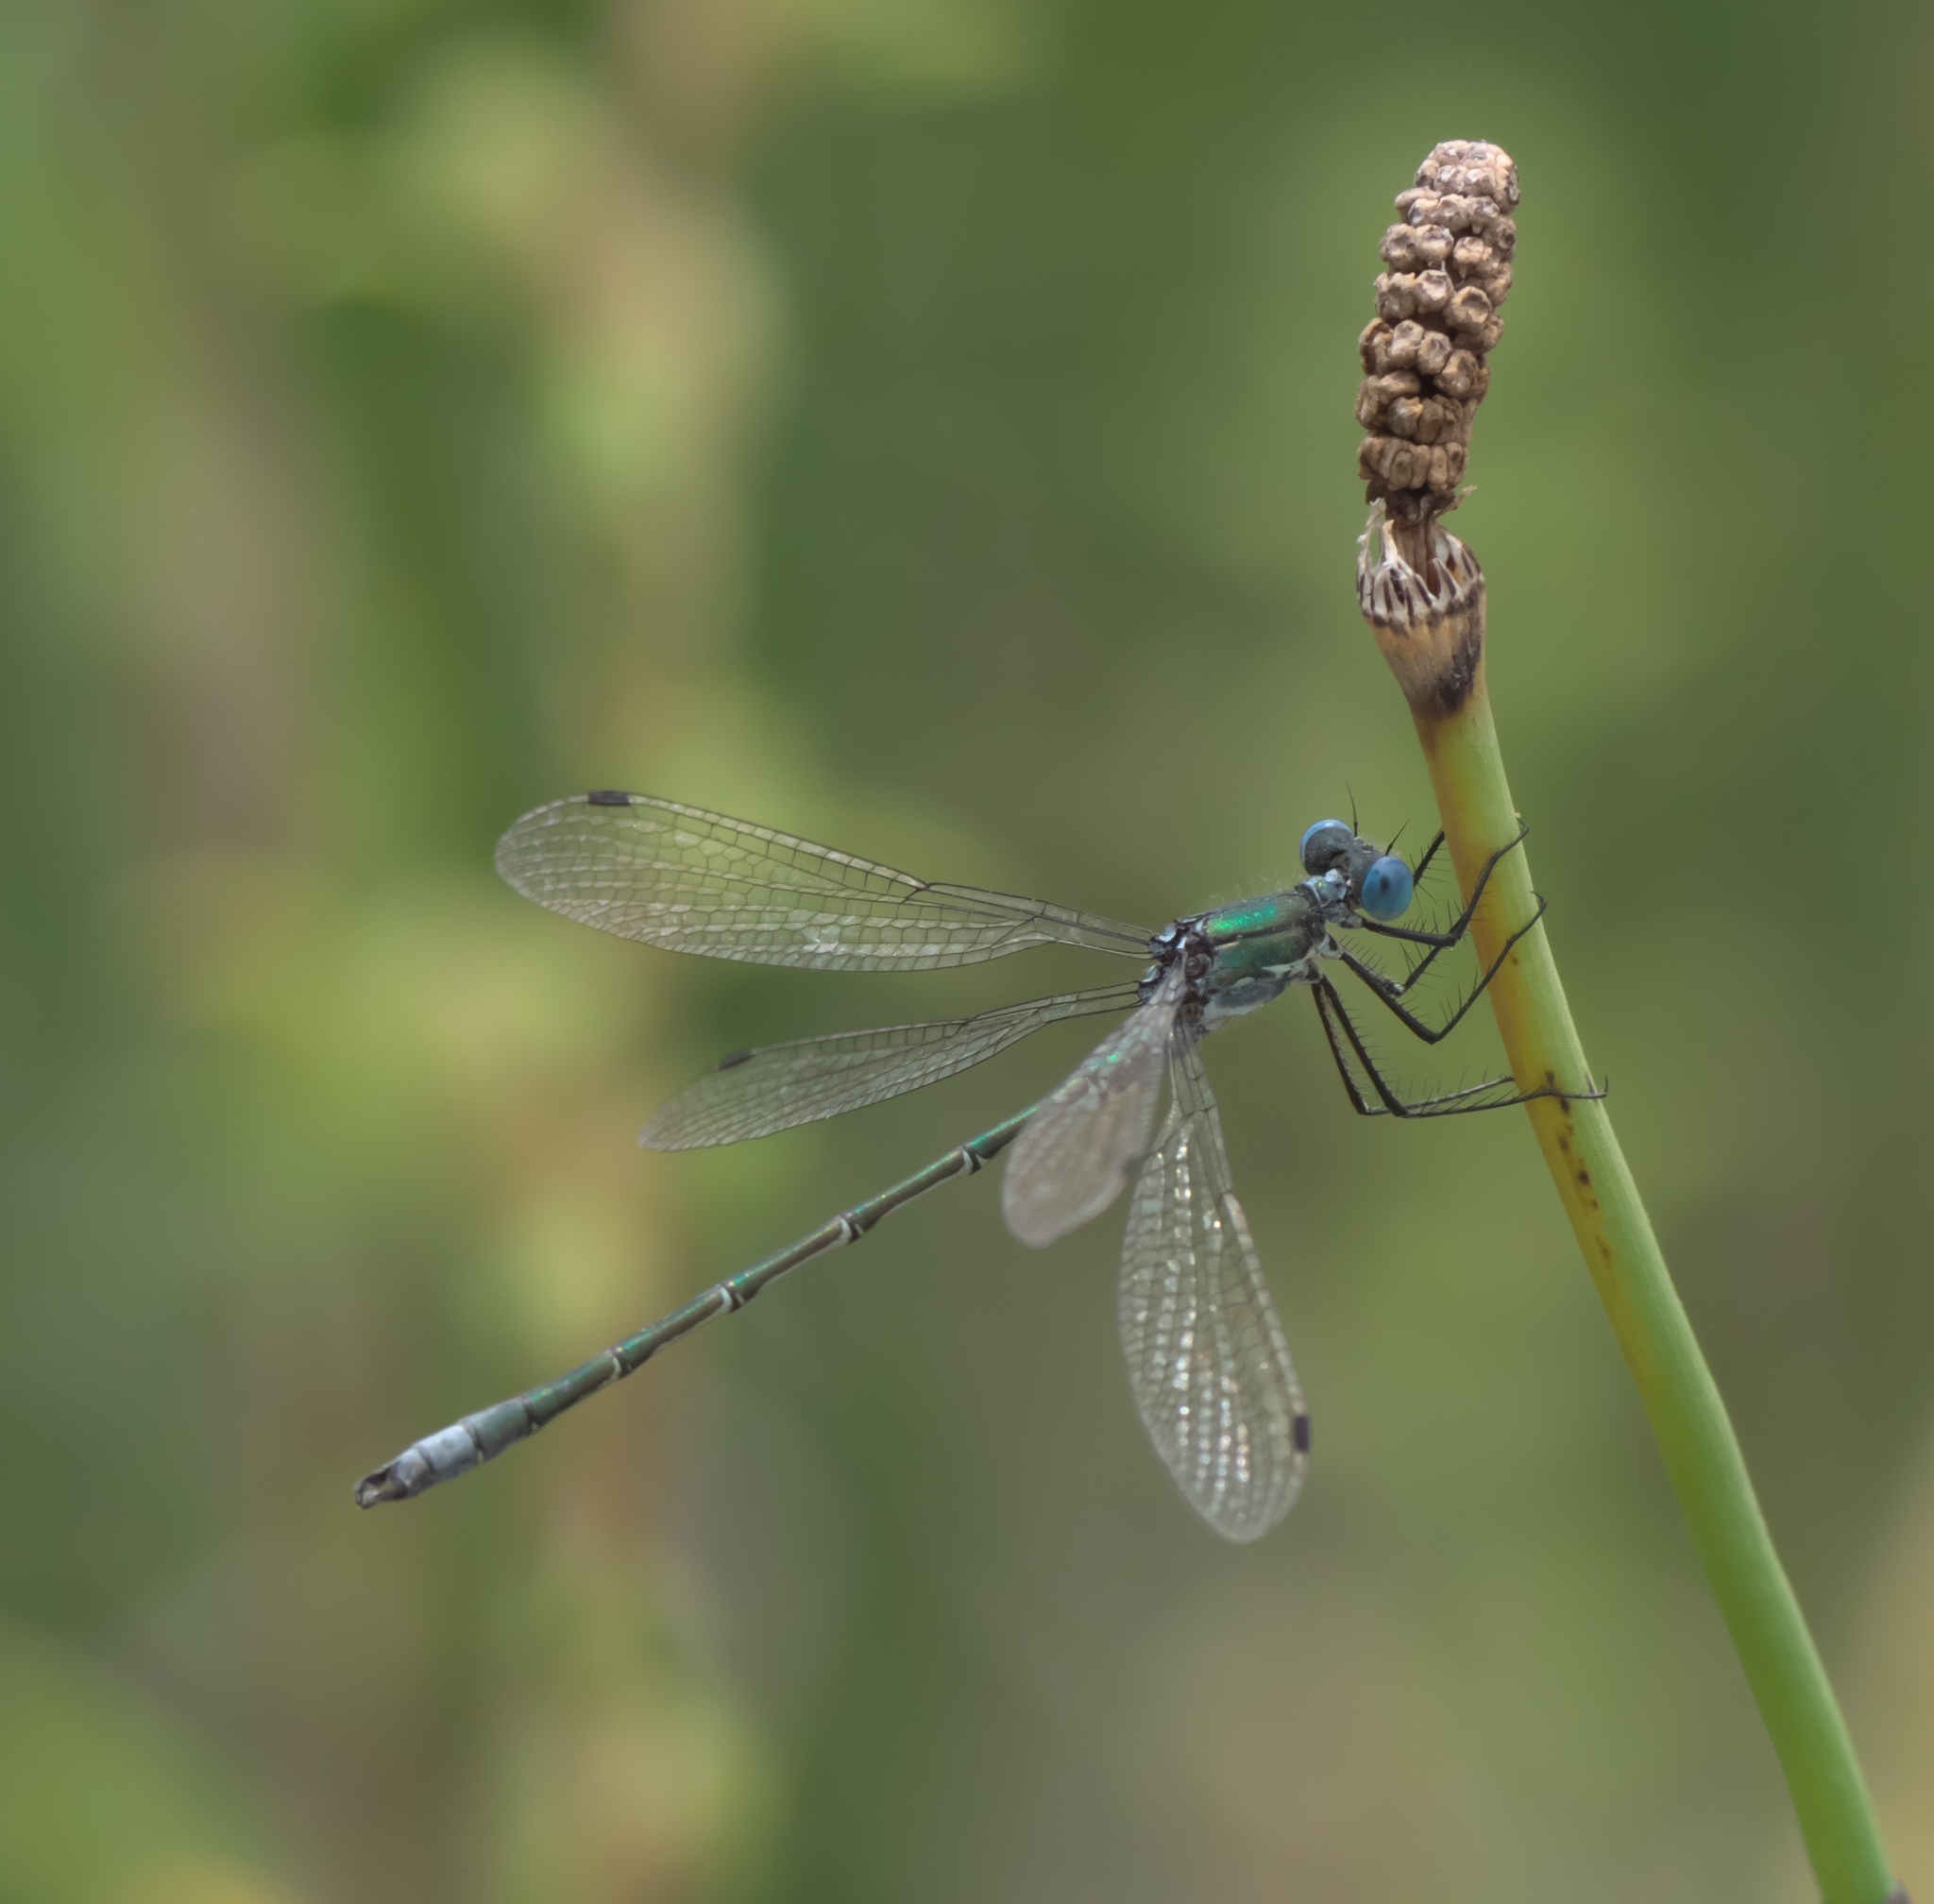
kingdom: Animalia
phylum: Arthropoda
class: Insecta
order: Odonata
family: Lestidae
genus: Lestes
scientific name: Lestes dryas
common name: Scarce emerald damselfly
